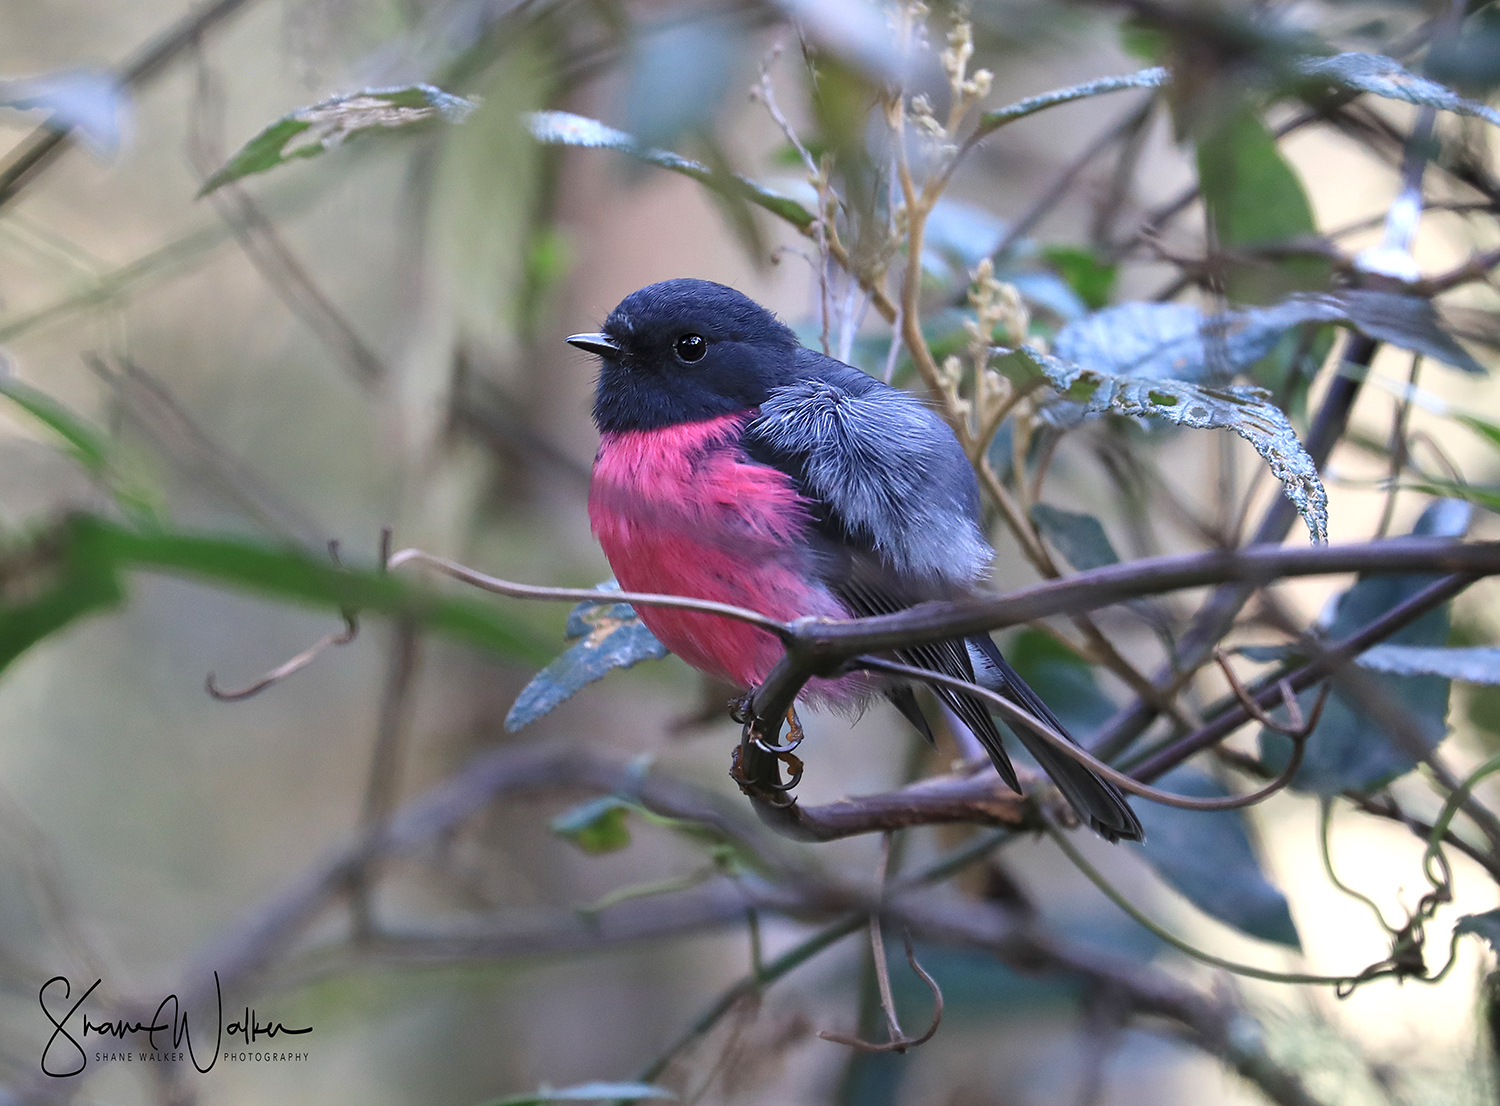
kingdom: Animalia
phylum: Chordata
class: Aves
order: Passeriformes
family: Petroicidae
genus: Petroica
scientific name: Petroica rodinogaster
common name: Pink robin
